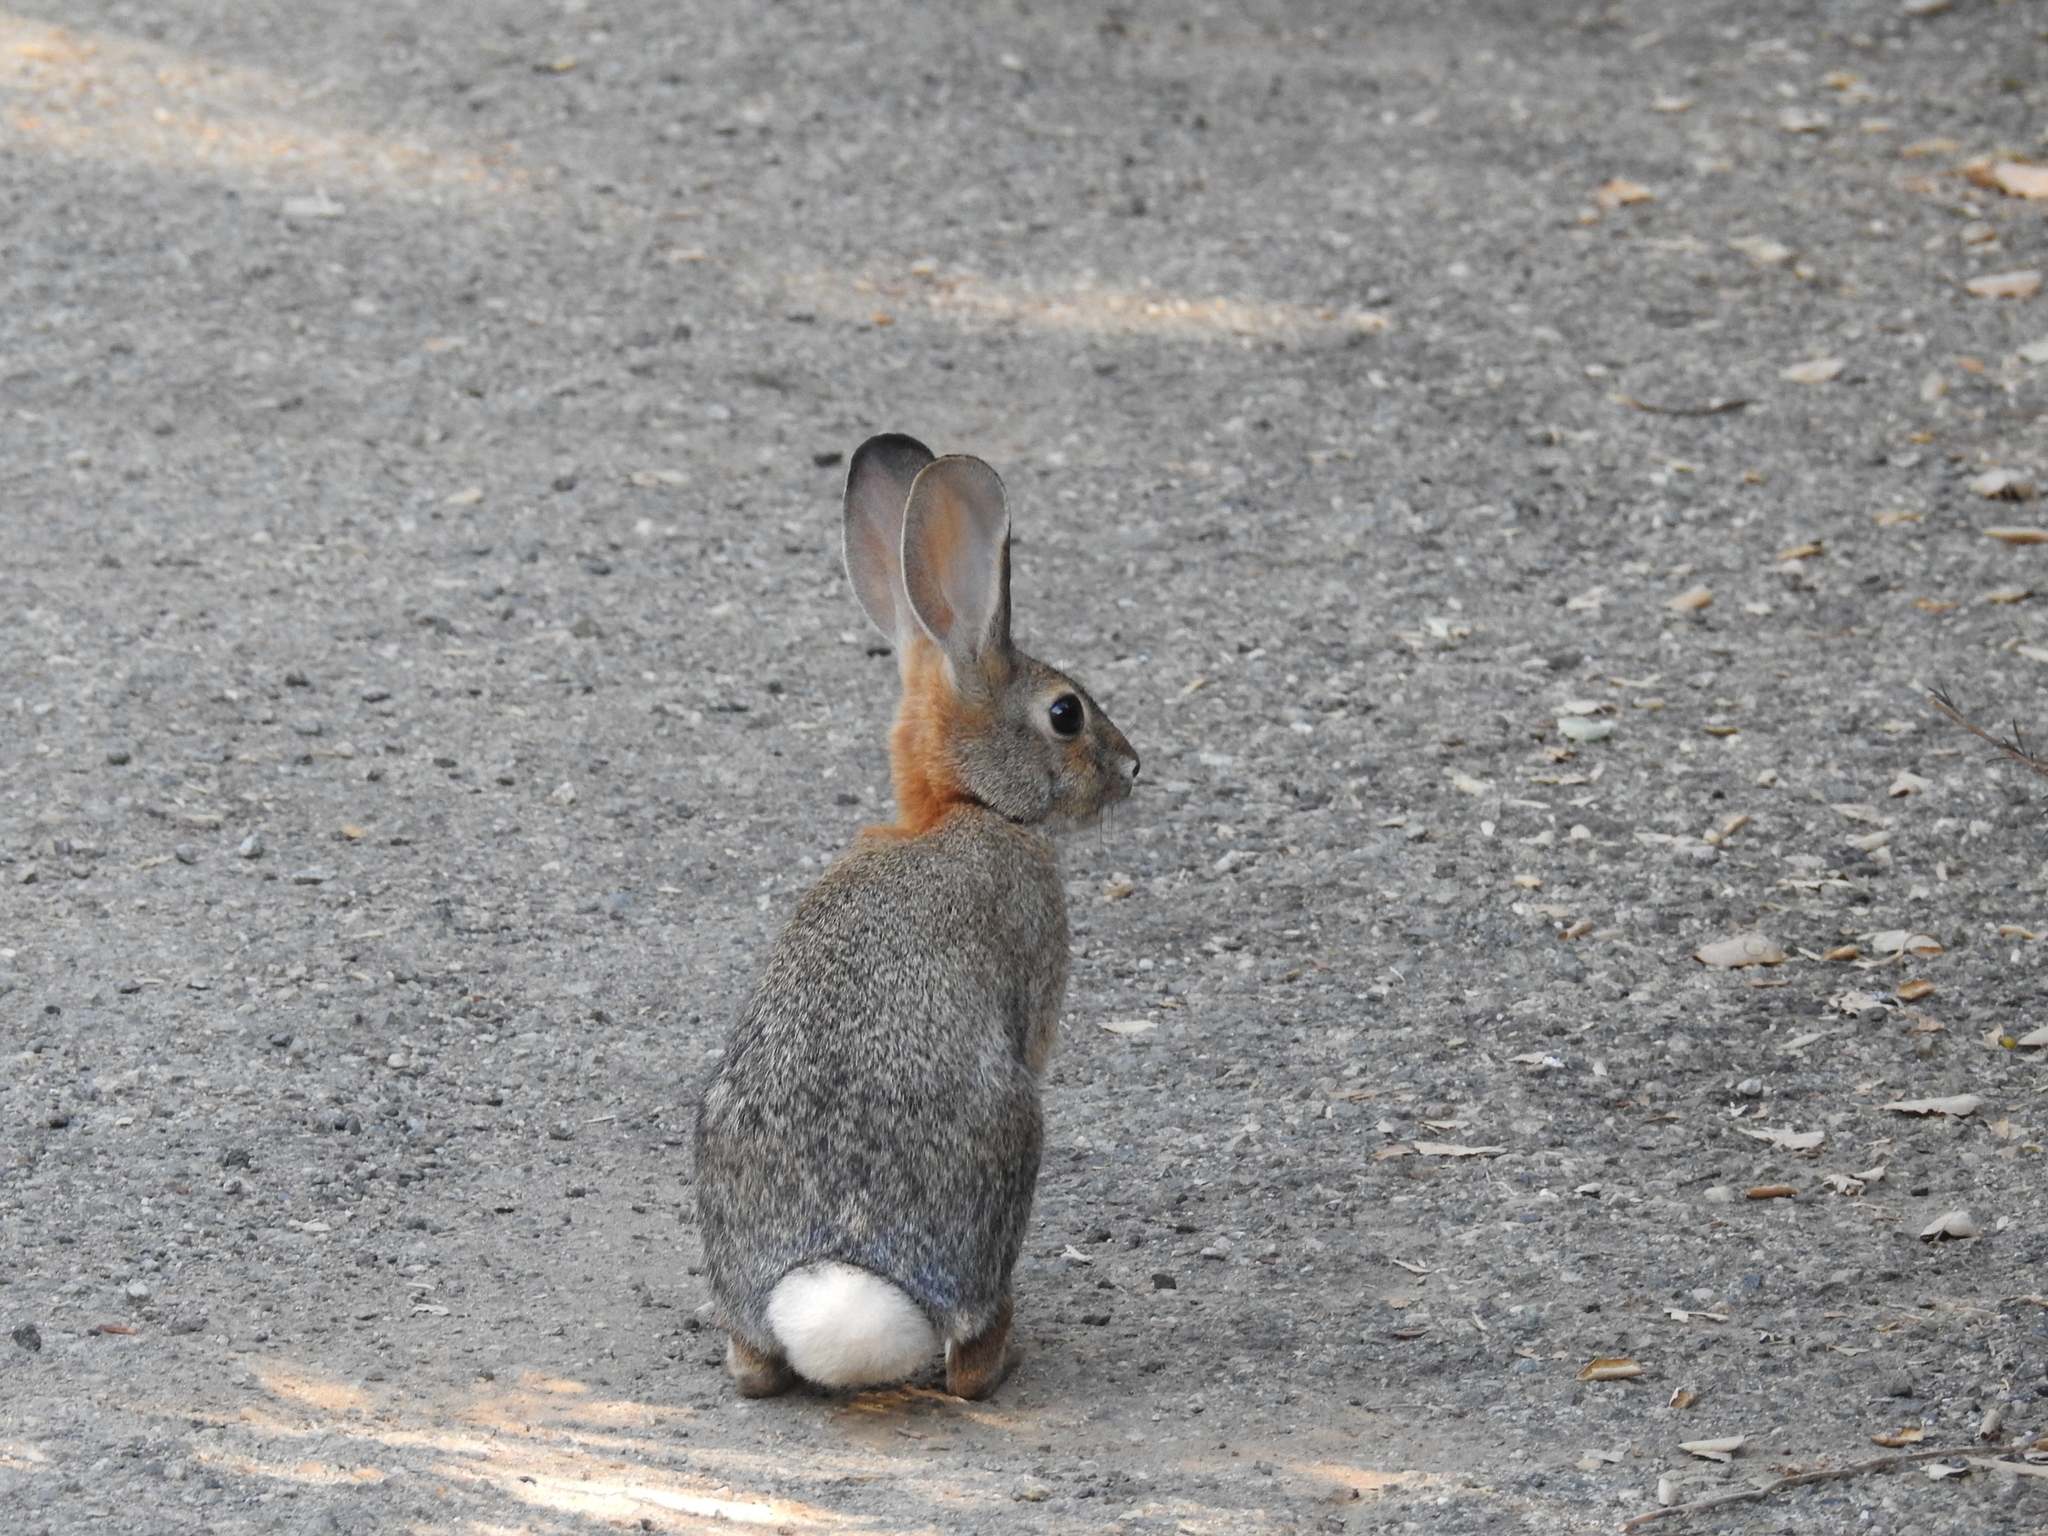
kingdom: Animalia
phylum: Chordata
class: Mammalia
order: Lagomorpha
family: Leporidae
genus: Sylvilagus
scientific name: Sylvilagus audubonii
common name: Desert cottontail
